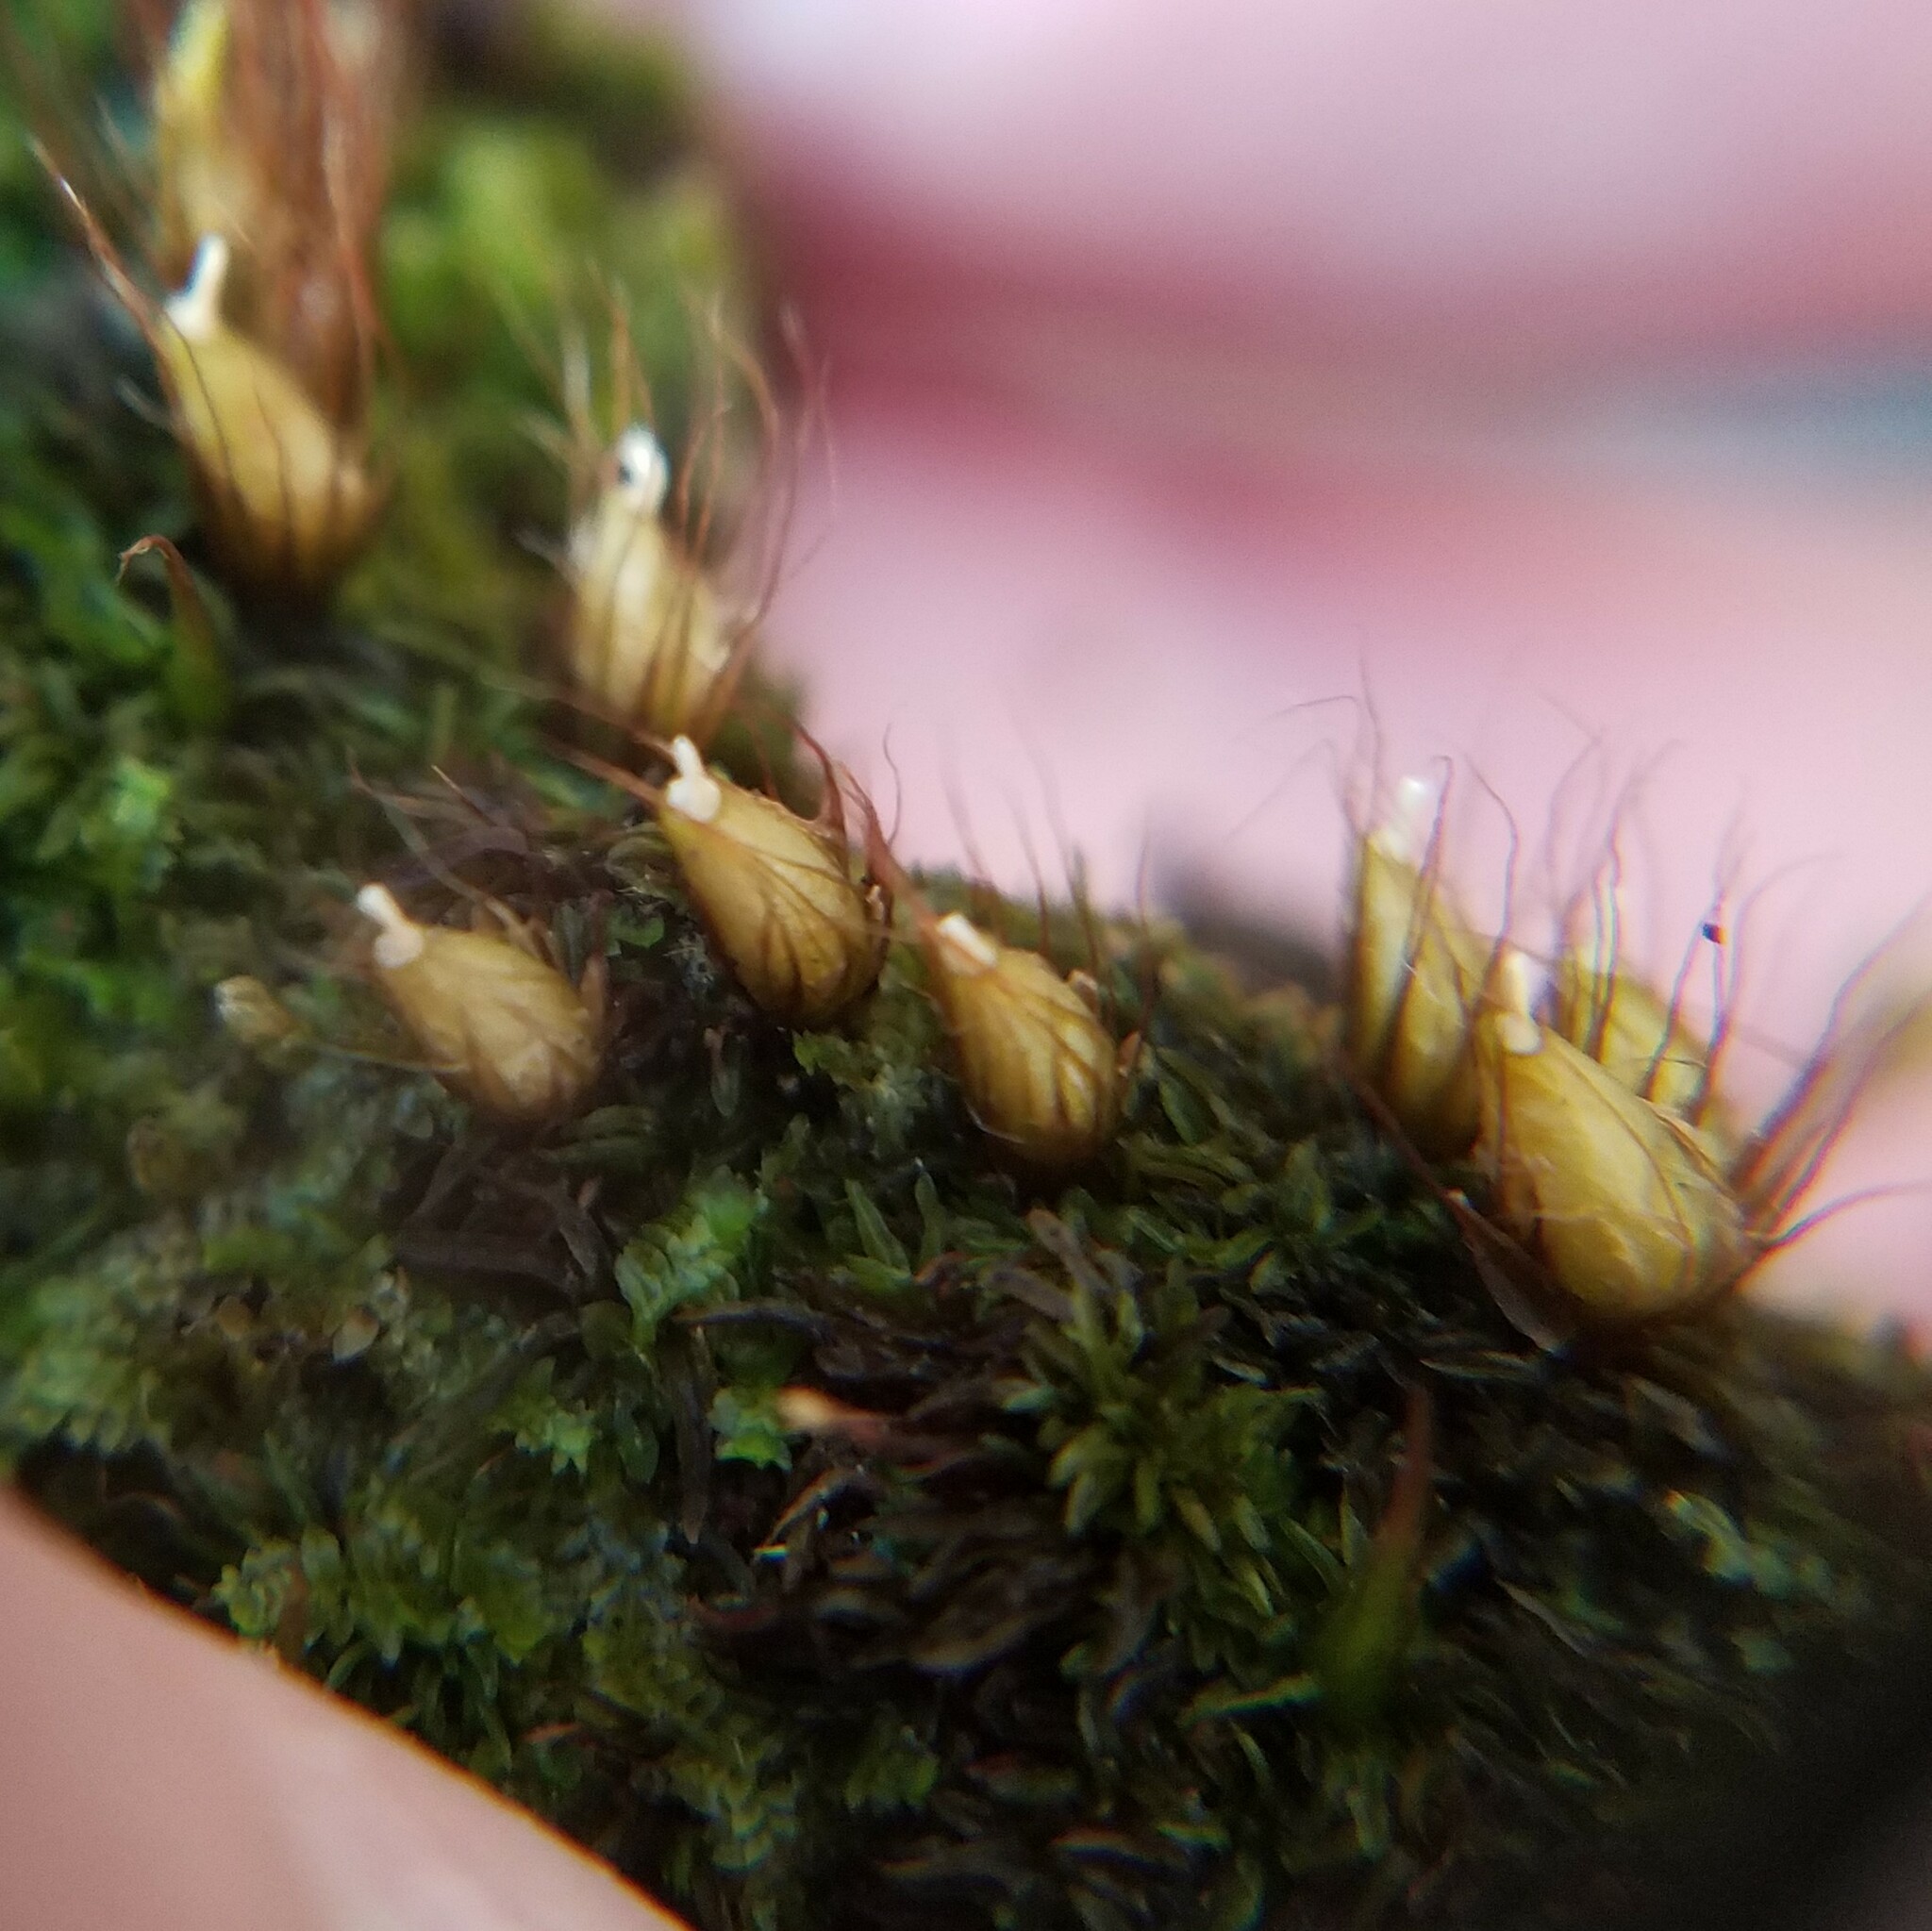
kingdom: Plantae
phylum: Bryophyta
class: Bryopsida
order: Diphysciales
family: Diphysciaceae
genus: Diphyscium
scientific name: Diphyscium foliosum
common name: Nut moss
